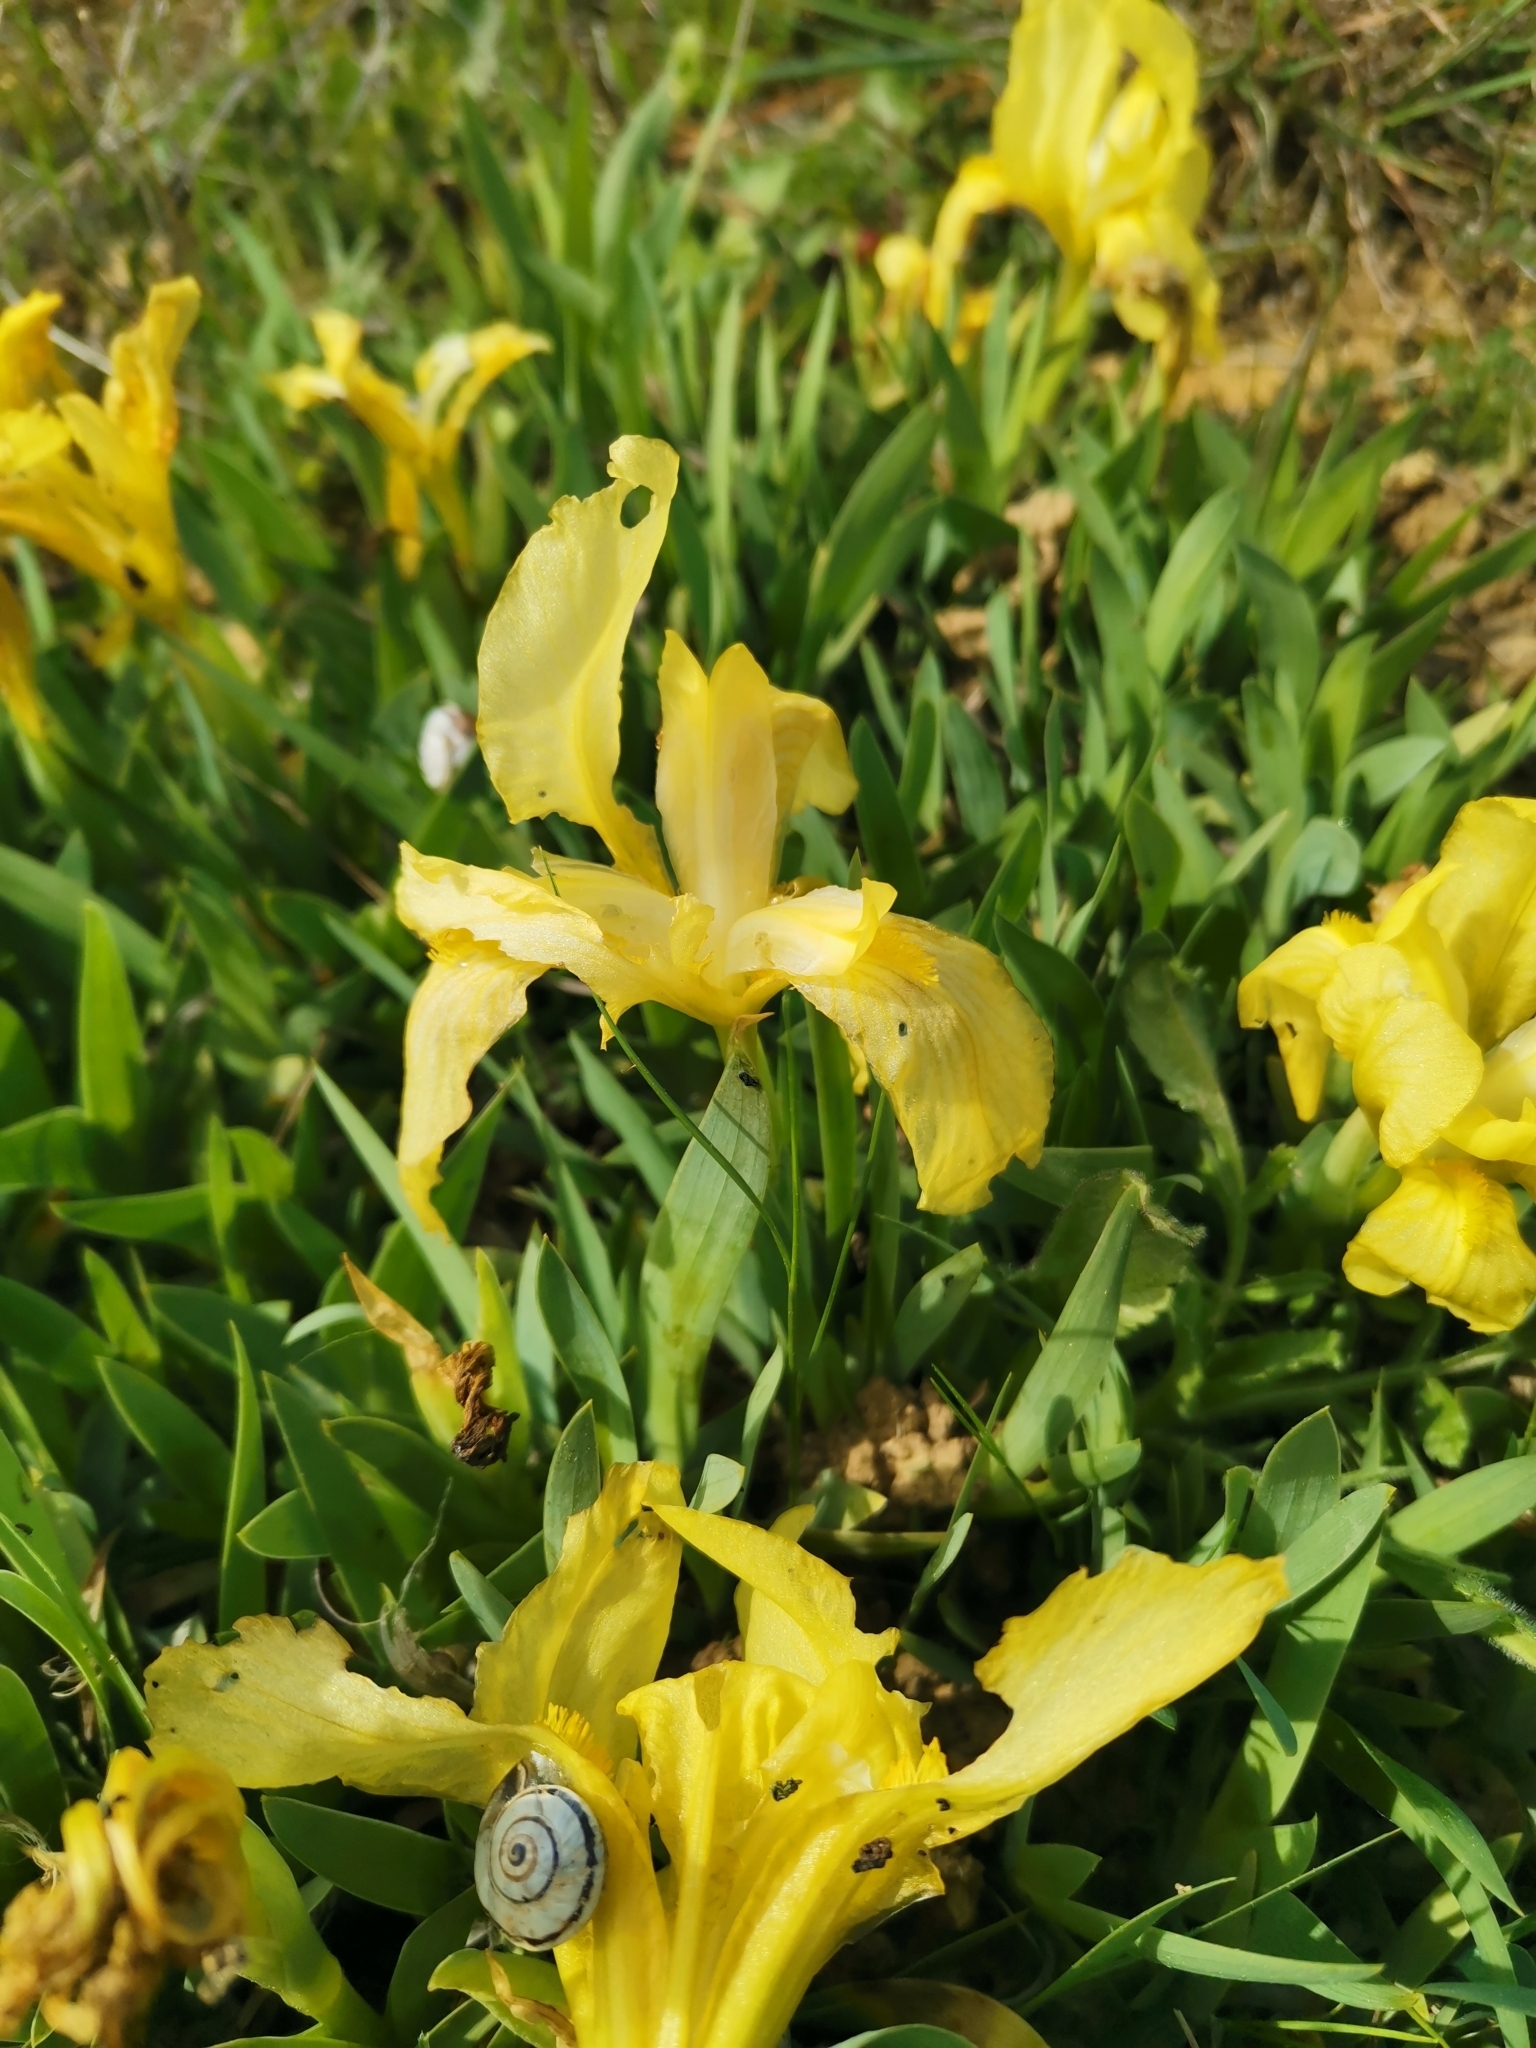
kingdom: Plantae
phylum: Tracheophyta
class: Liliopsida
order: Asparagales
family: Iridaceae
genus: Iris
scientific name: Iris lutescens
